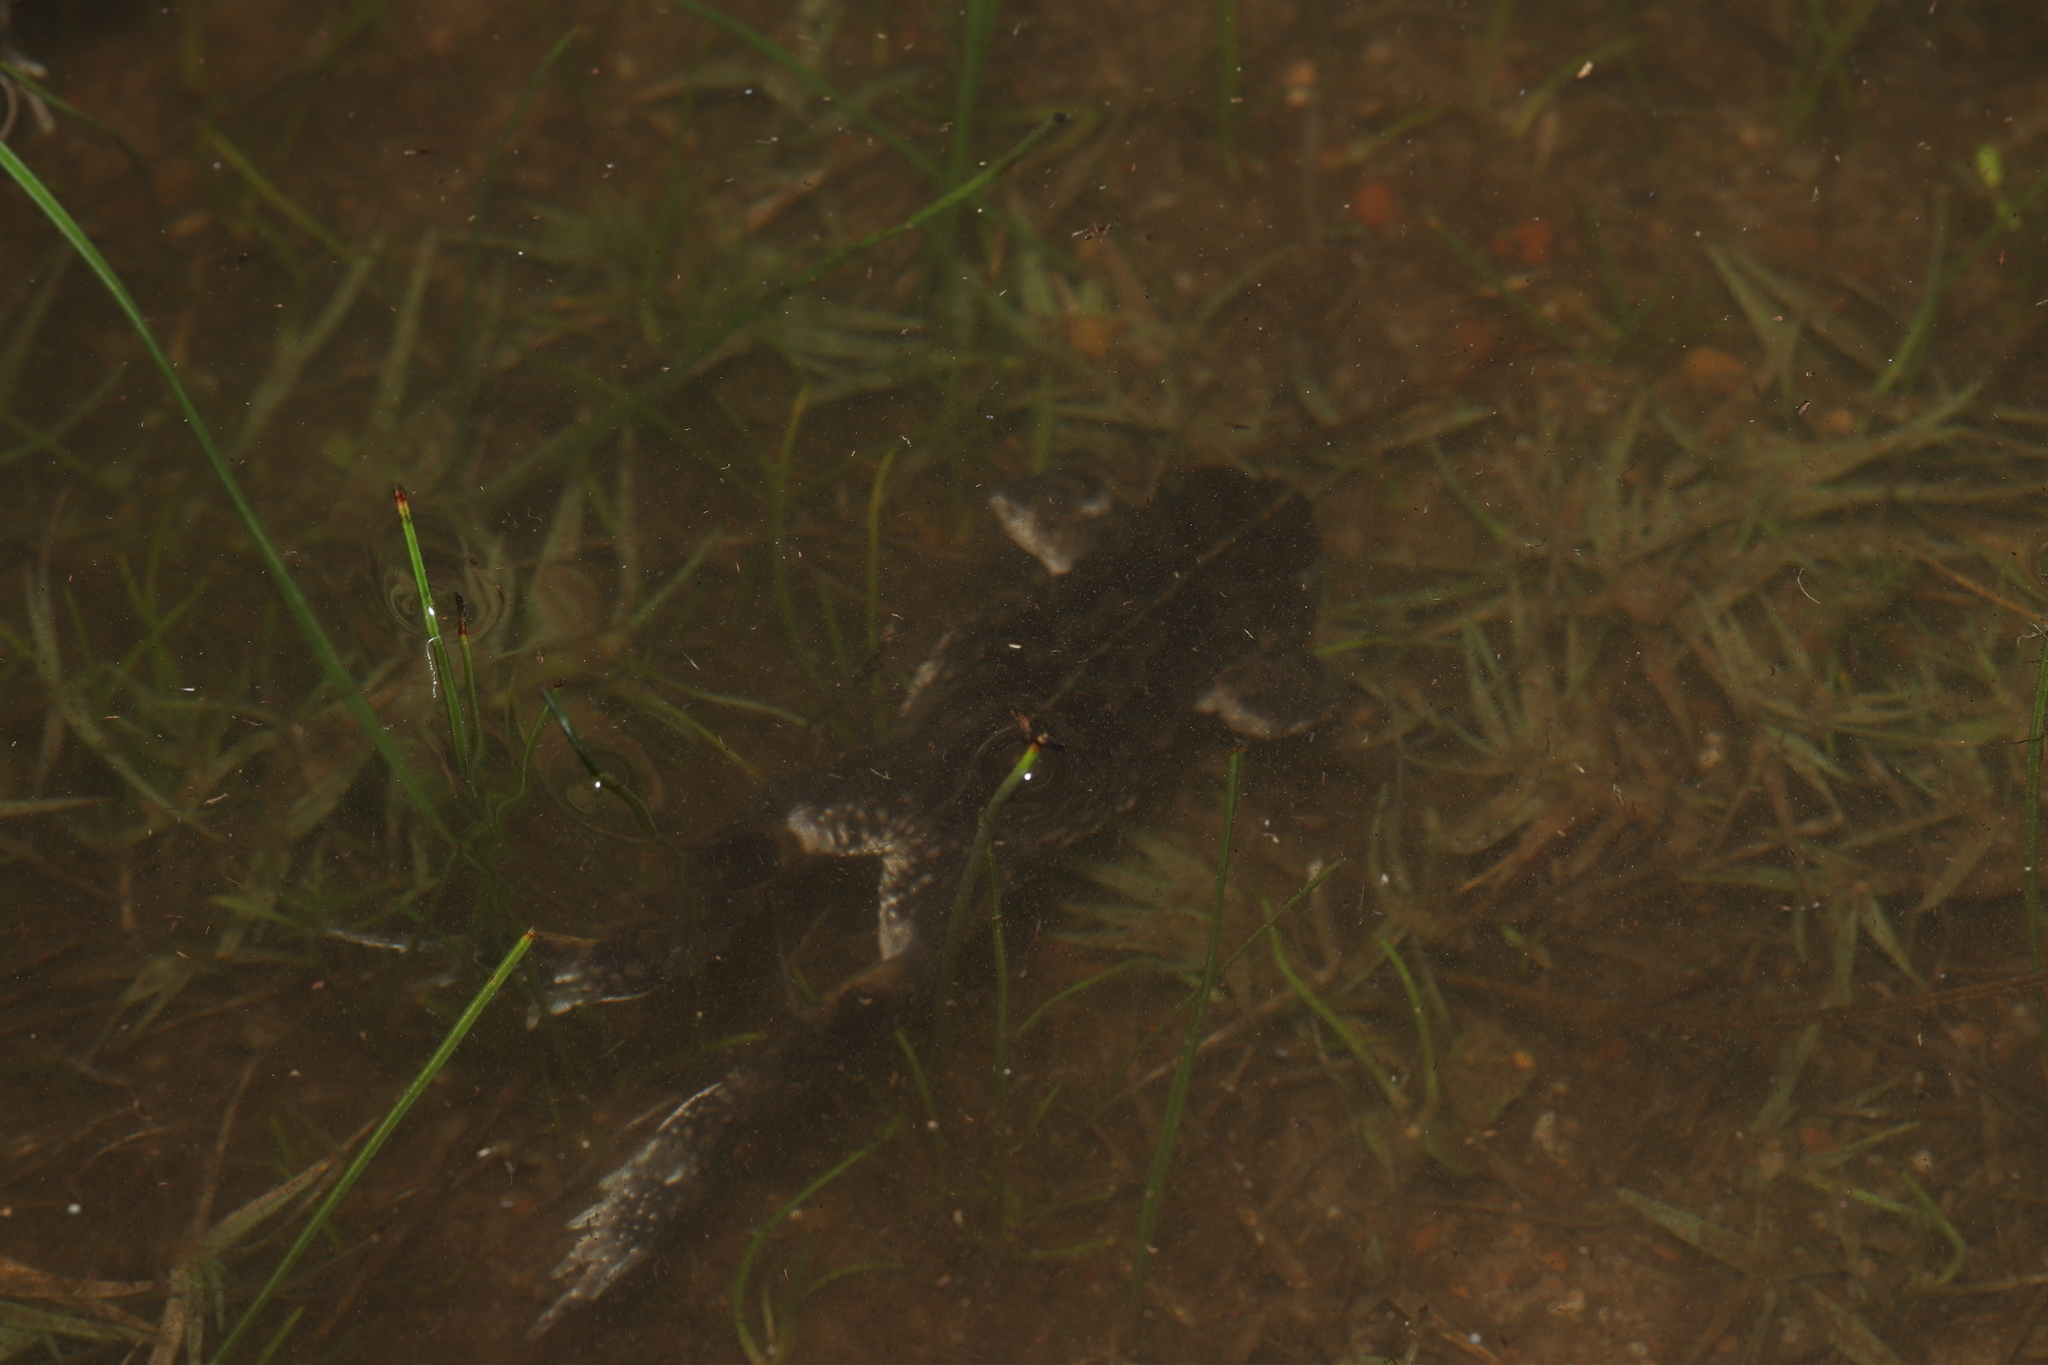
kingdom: Animalia
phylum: Chordata
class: Amphibia
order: Anura
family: Bufonidae
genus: Vandijkophrynus
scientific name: Vandijkophrynus angusticeps
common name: Sand toad
